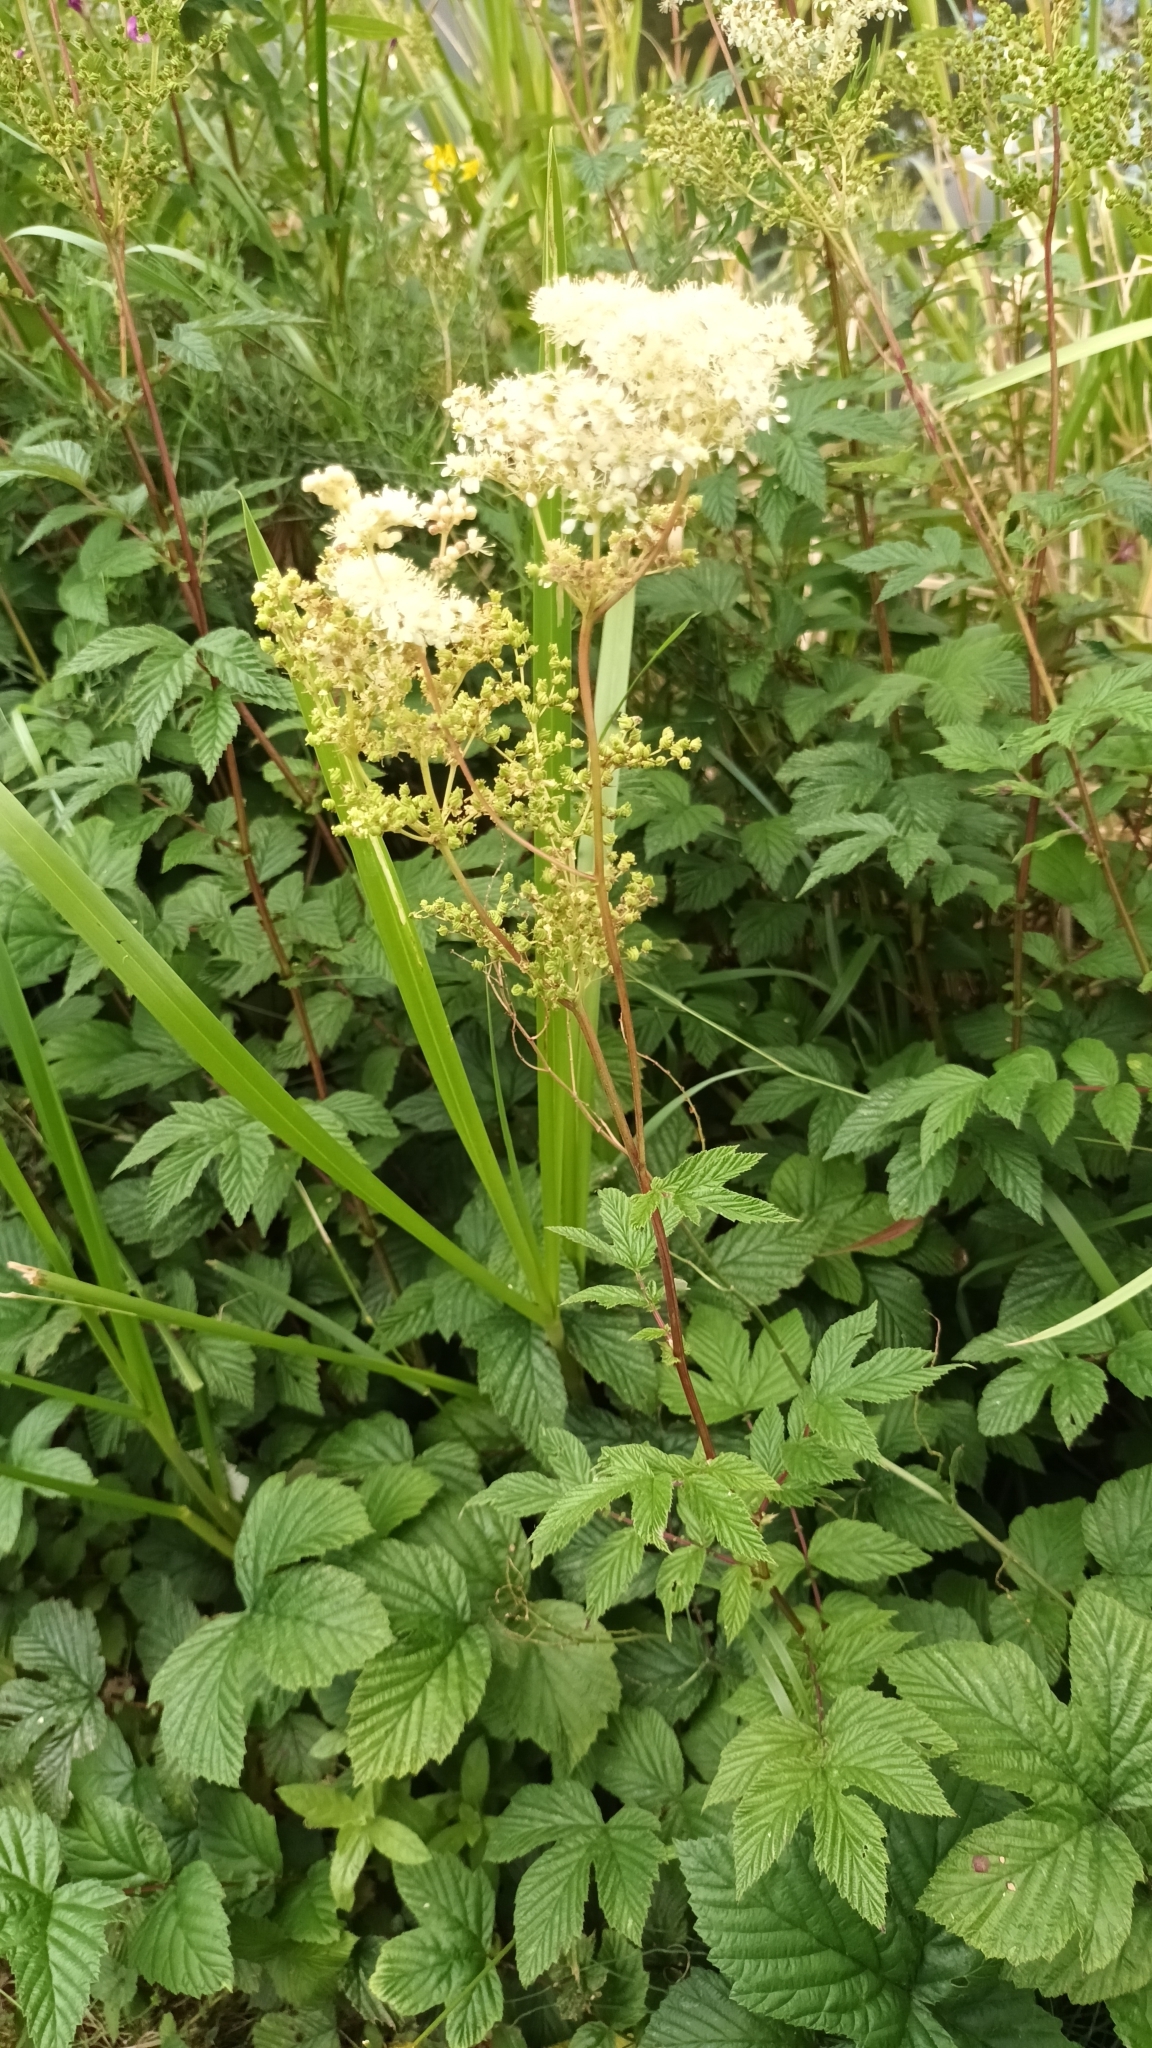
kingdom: Plantae
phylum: Tracheophyta
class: Magnoliopsida
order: Rosales
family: Rosaceae
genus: Filipendula
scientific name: Filipendula ulmaria
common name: Meadowsweet
